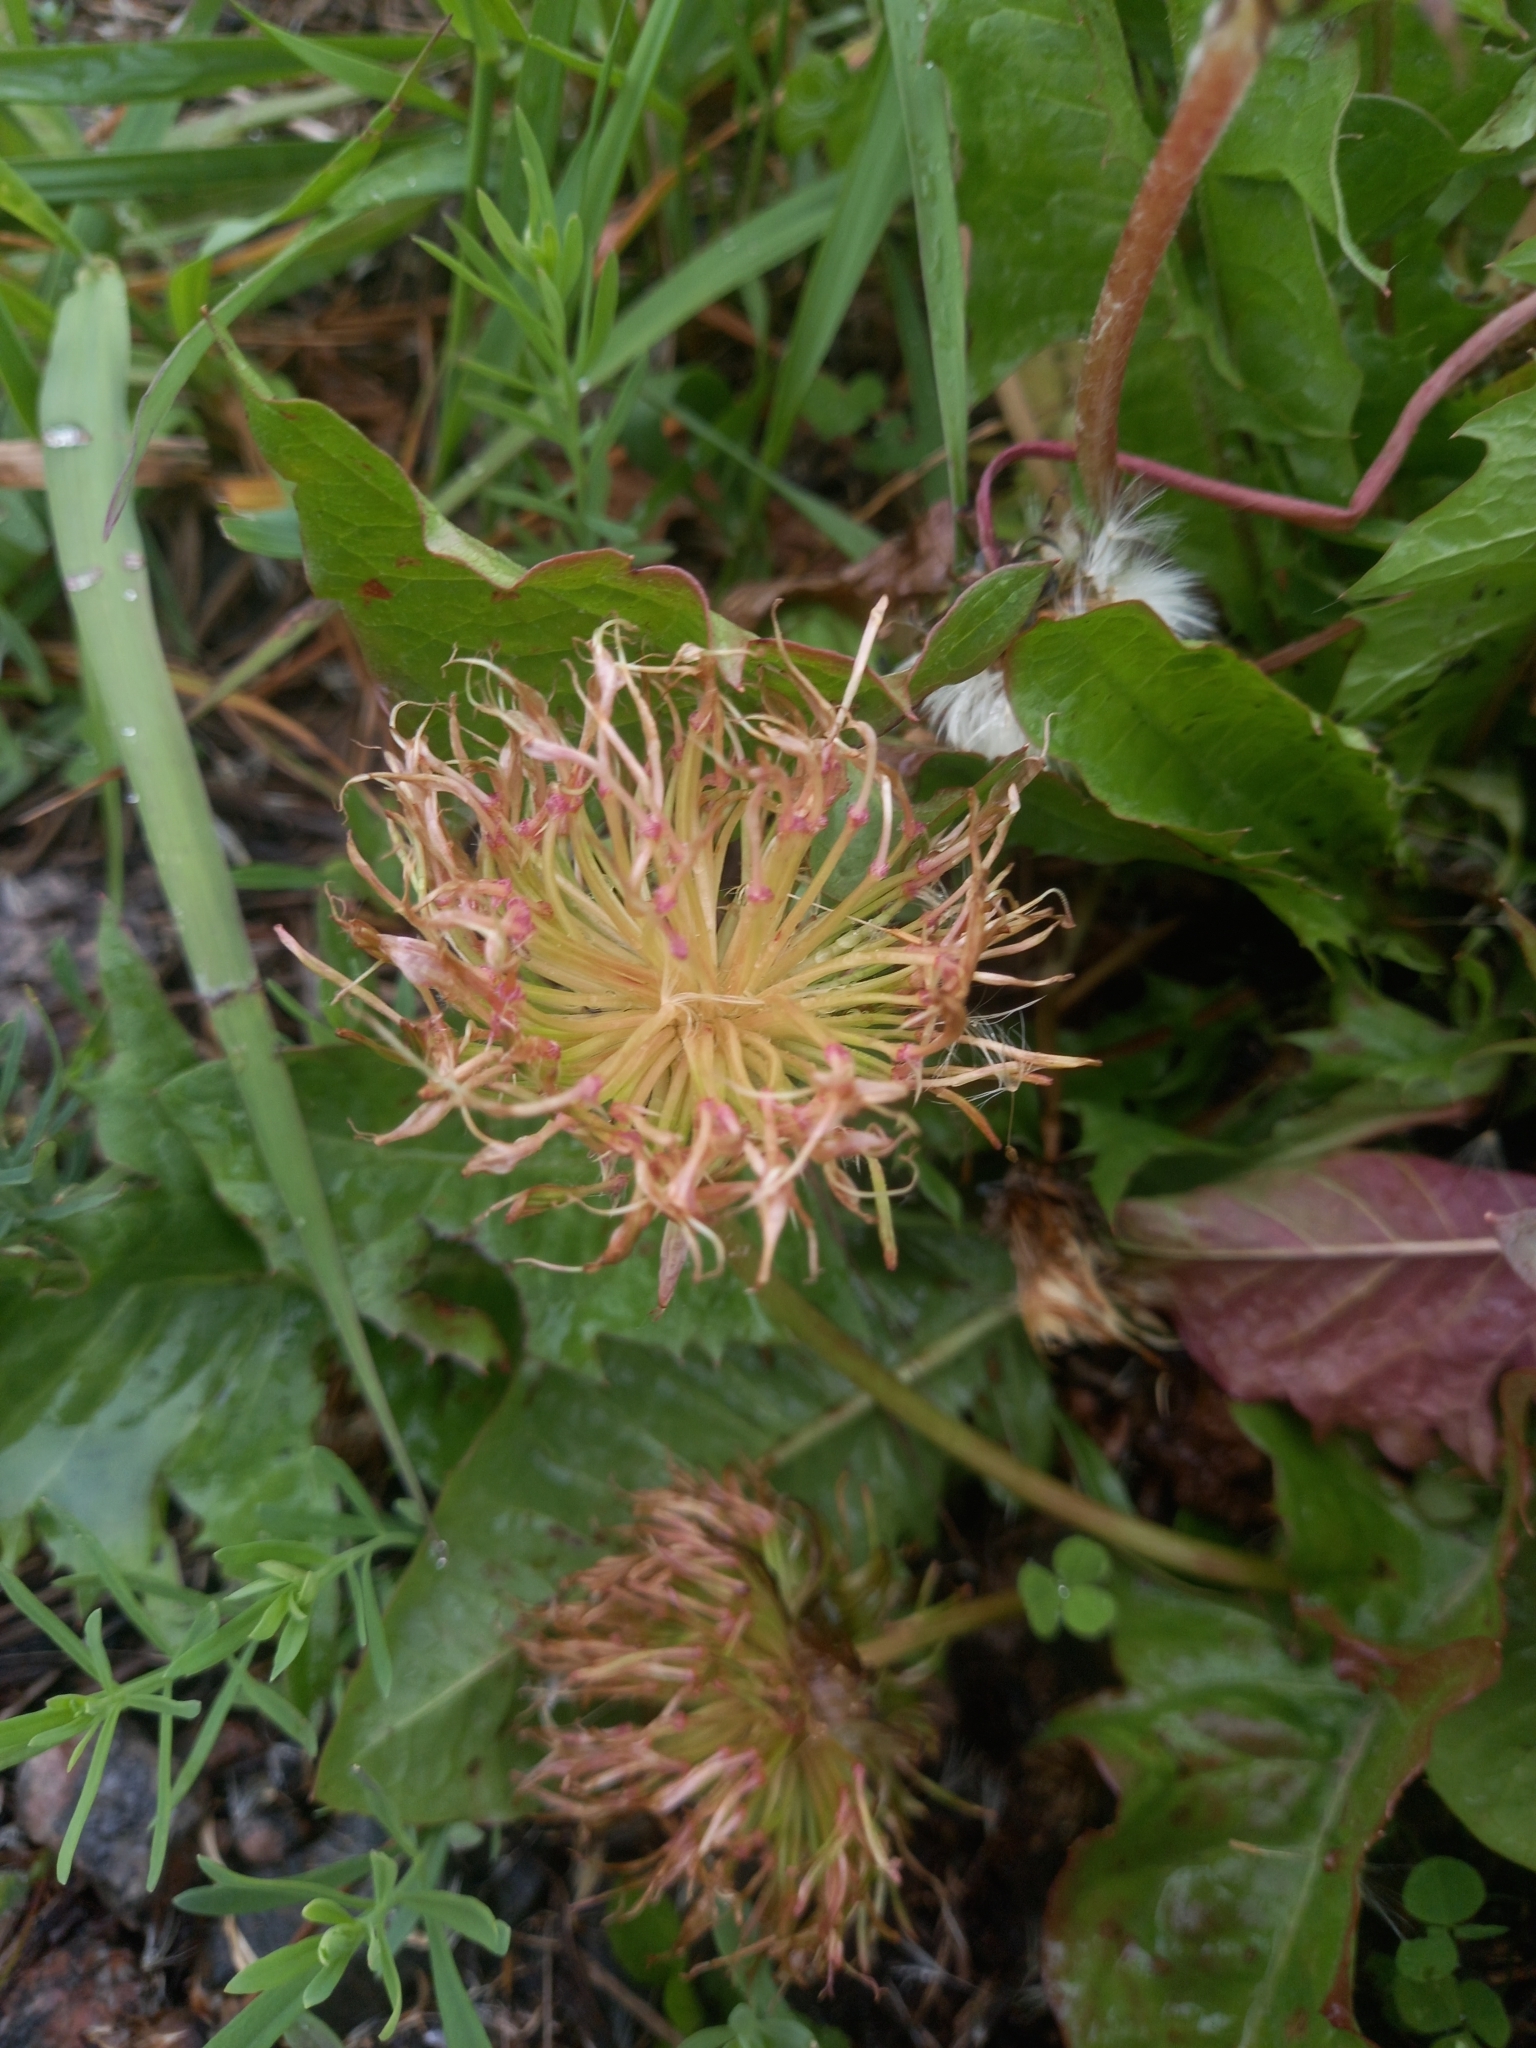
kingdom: Plantae
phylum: Tracheophyta
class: Magnoliopsida
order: Asterales
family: Asteraceae
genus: Taraxacum
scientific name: Taraxacum officinale
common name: Common dandelion
